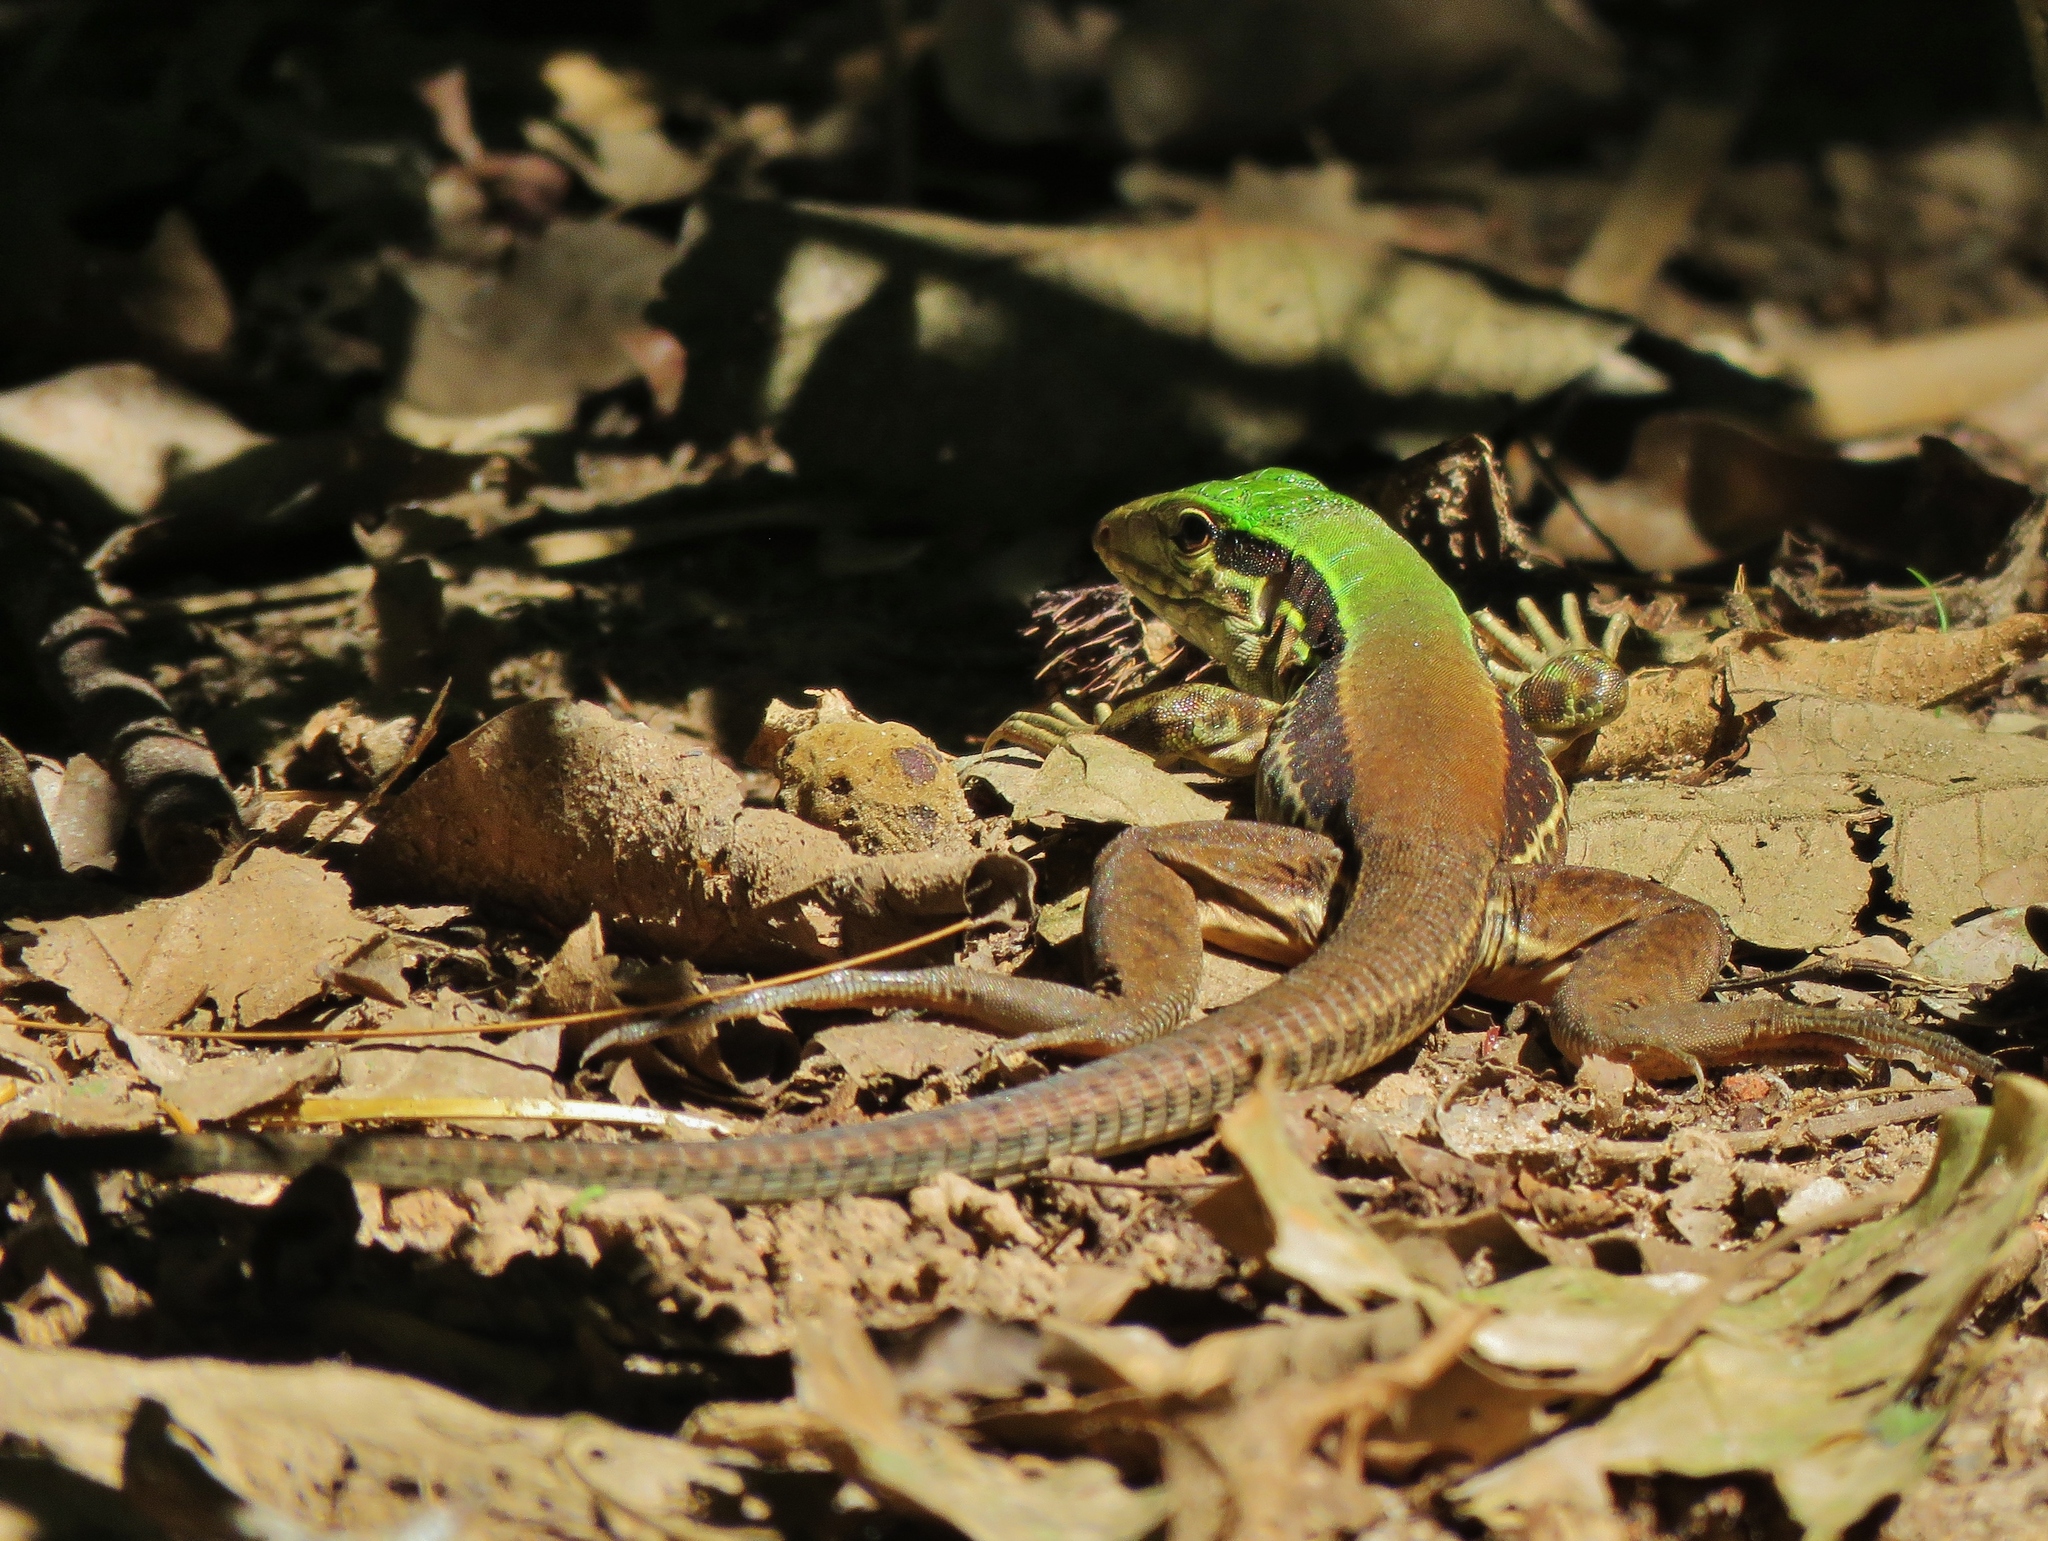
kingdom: Animalia
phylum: Chordata
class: Squamata
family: Teiidae
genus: Ameiva
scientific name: Ameiva ameiva
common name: Giant ameiva
